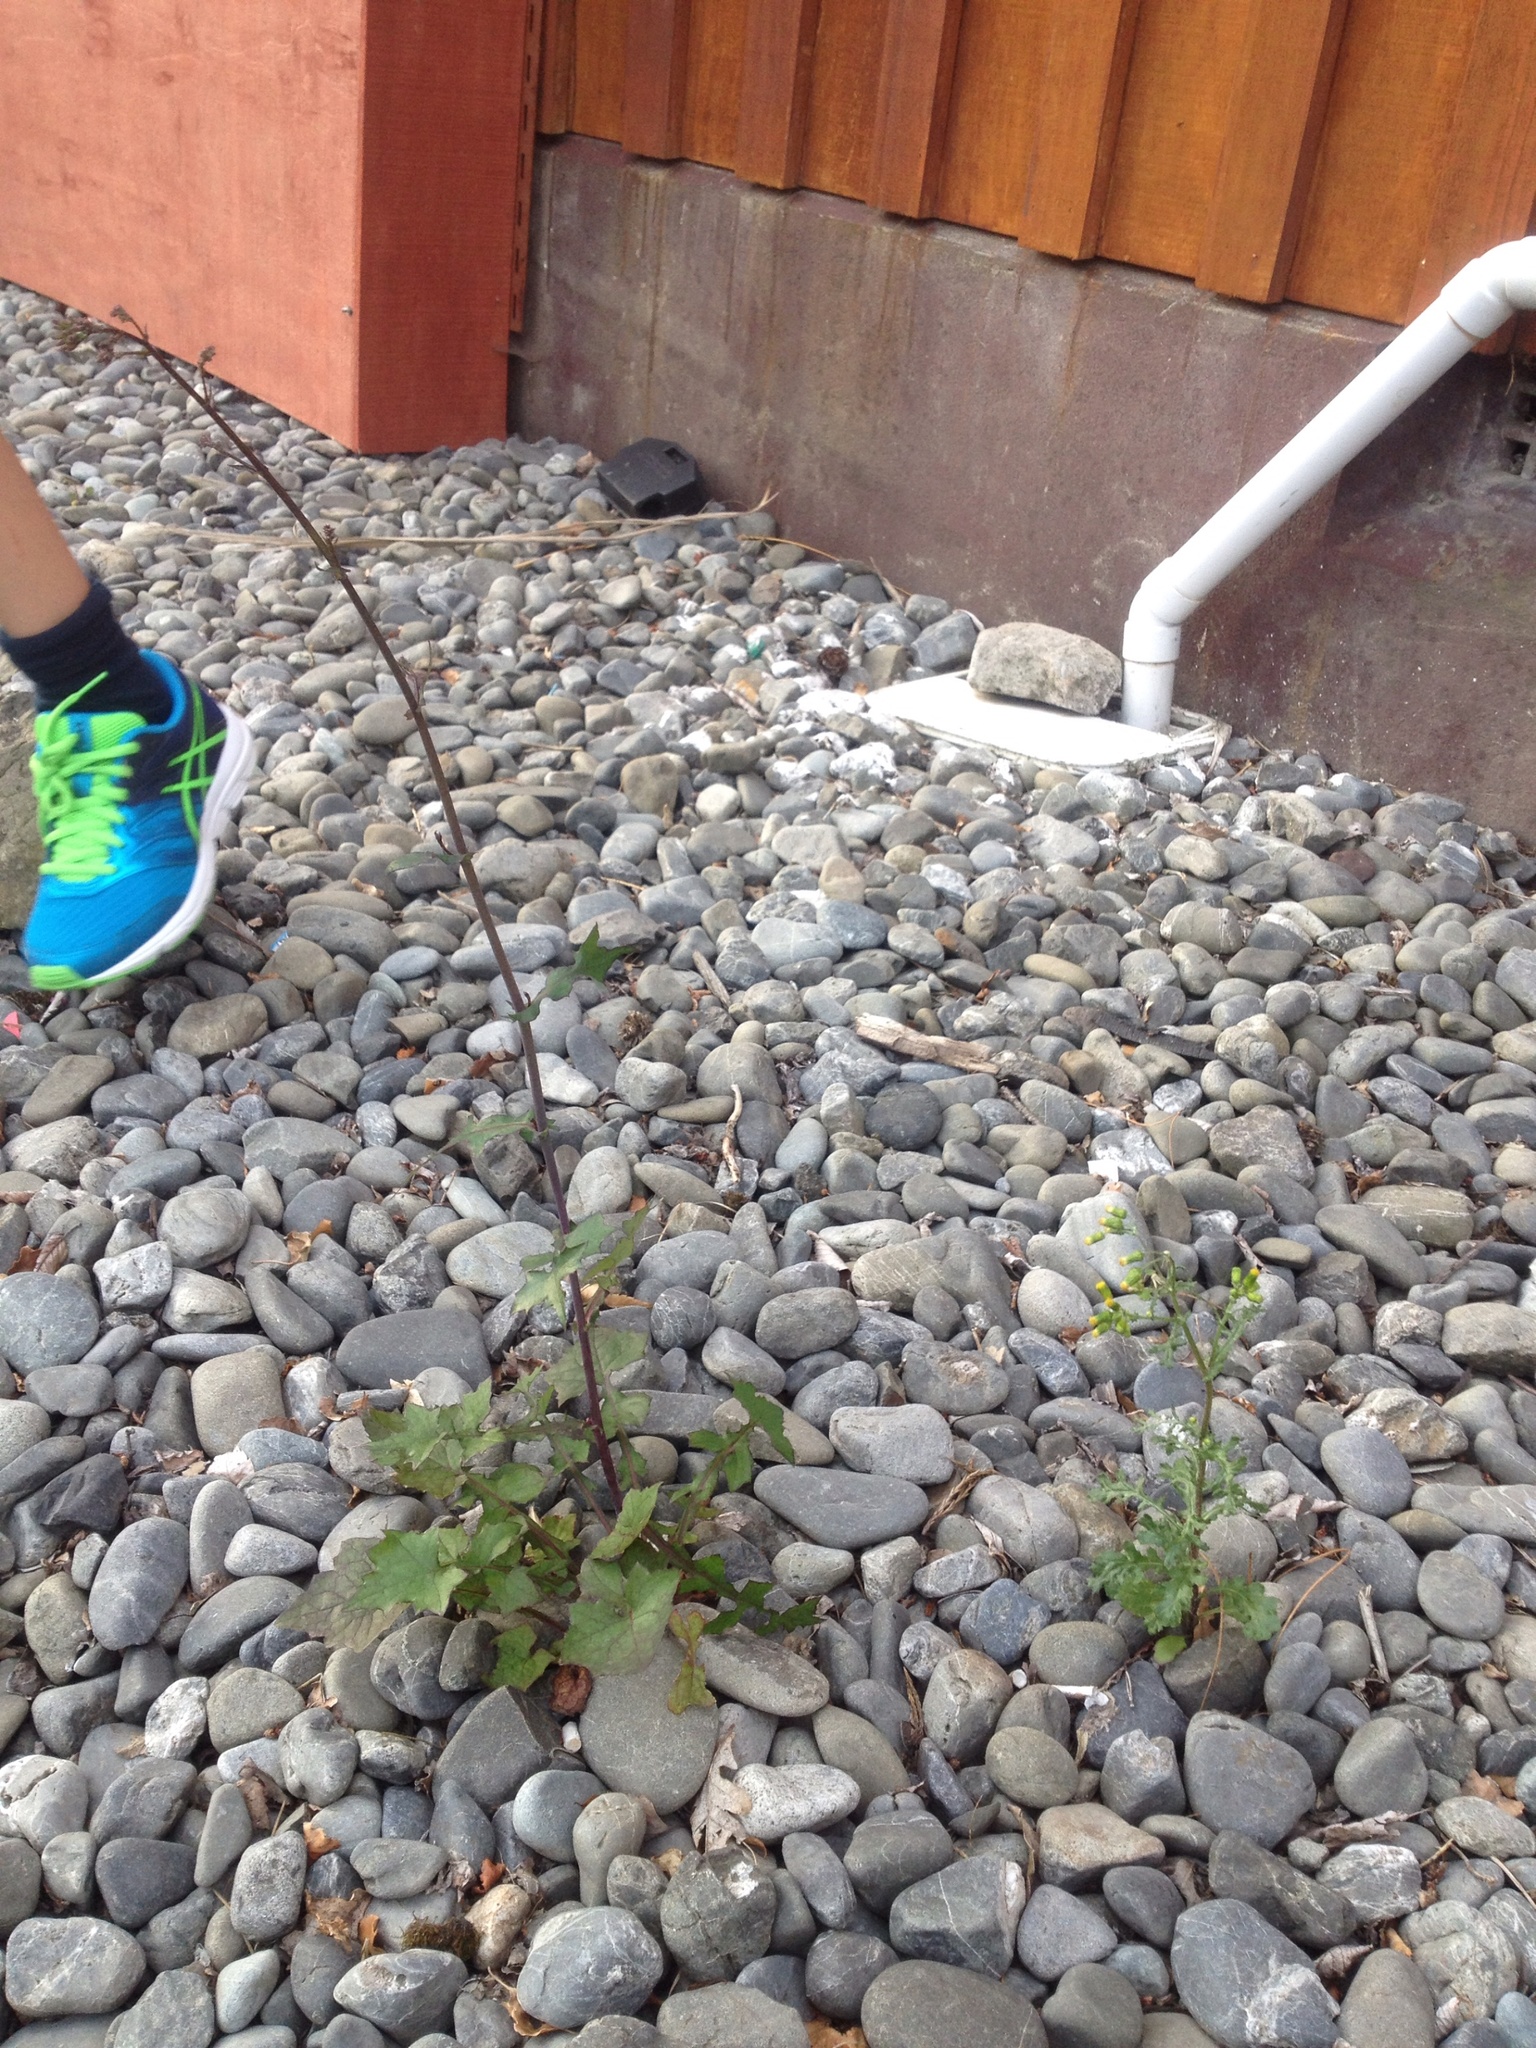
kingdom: Plantae
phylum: Tracheophyta
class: Magnoliopsida
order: Asterales
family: Asteraceae
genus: Mycelis
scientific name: Mycelis muralis
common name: Wall lettuce
